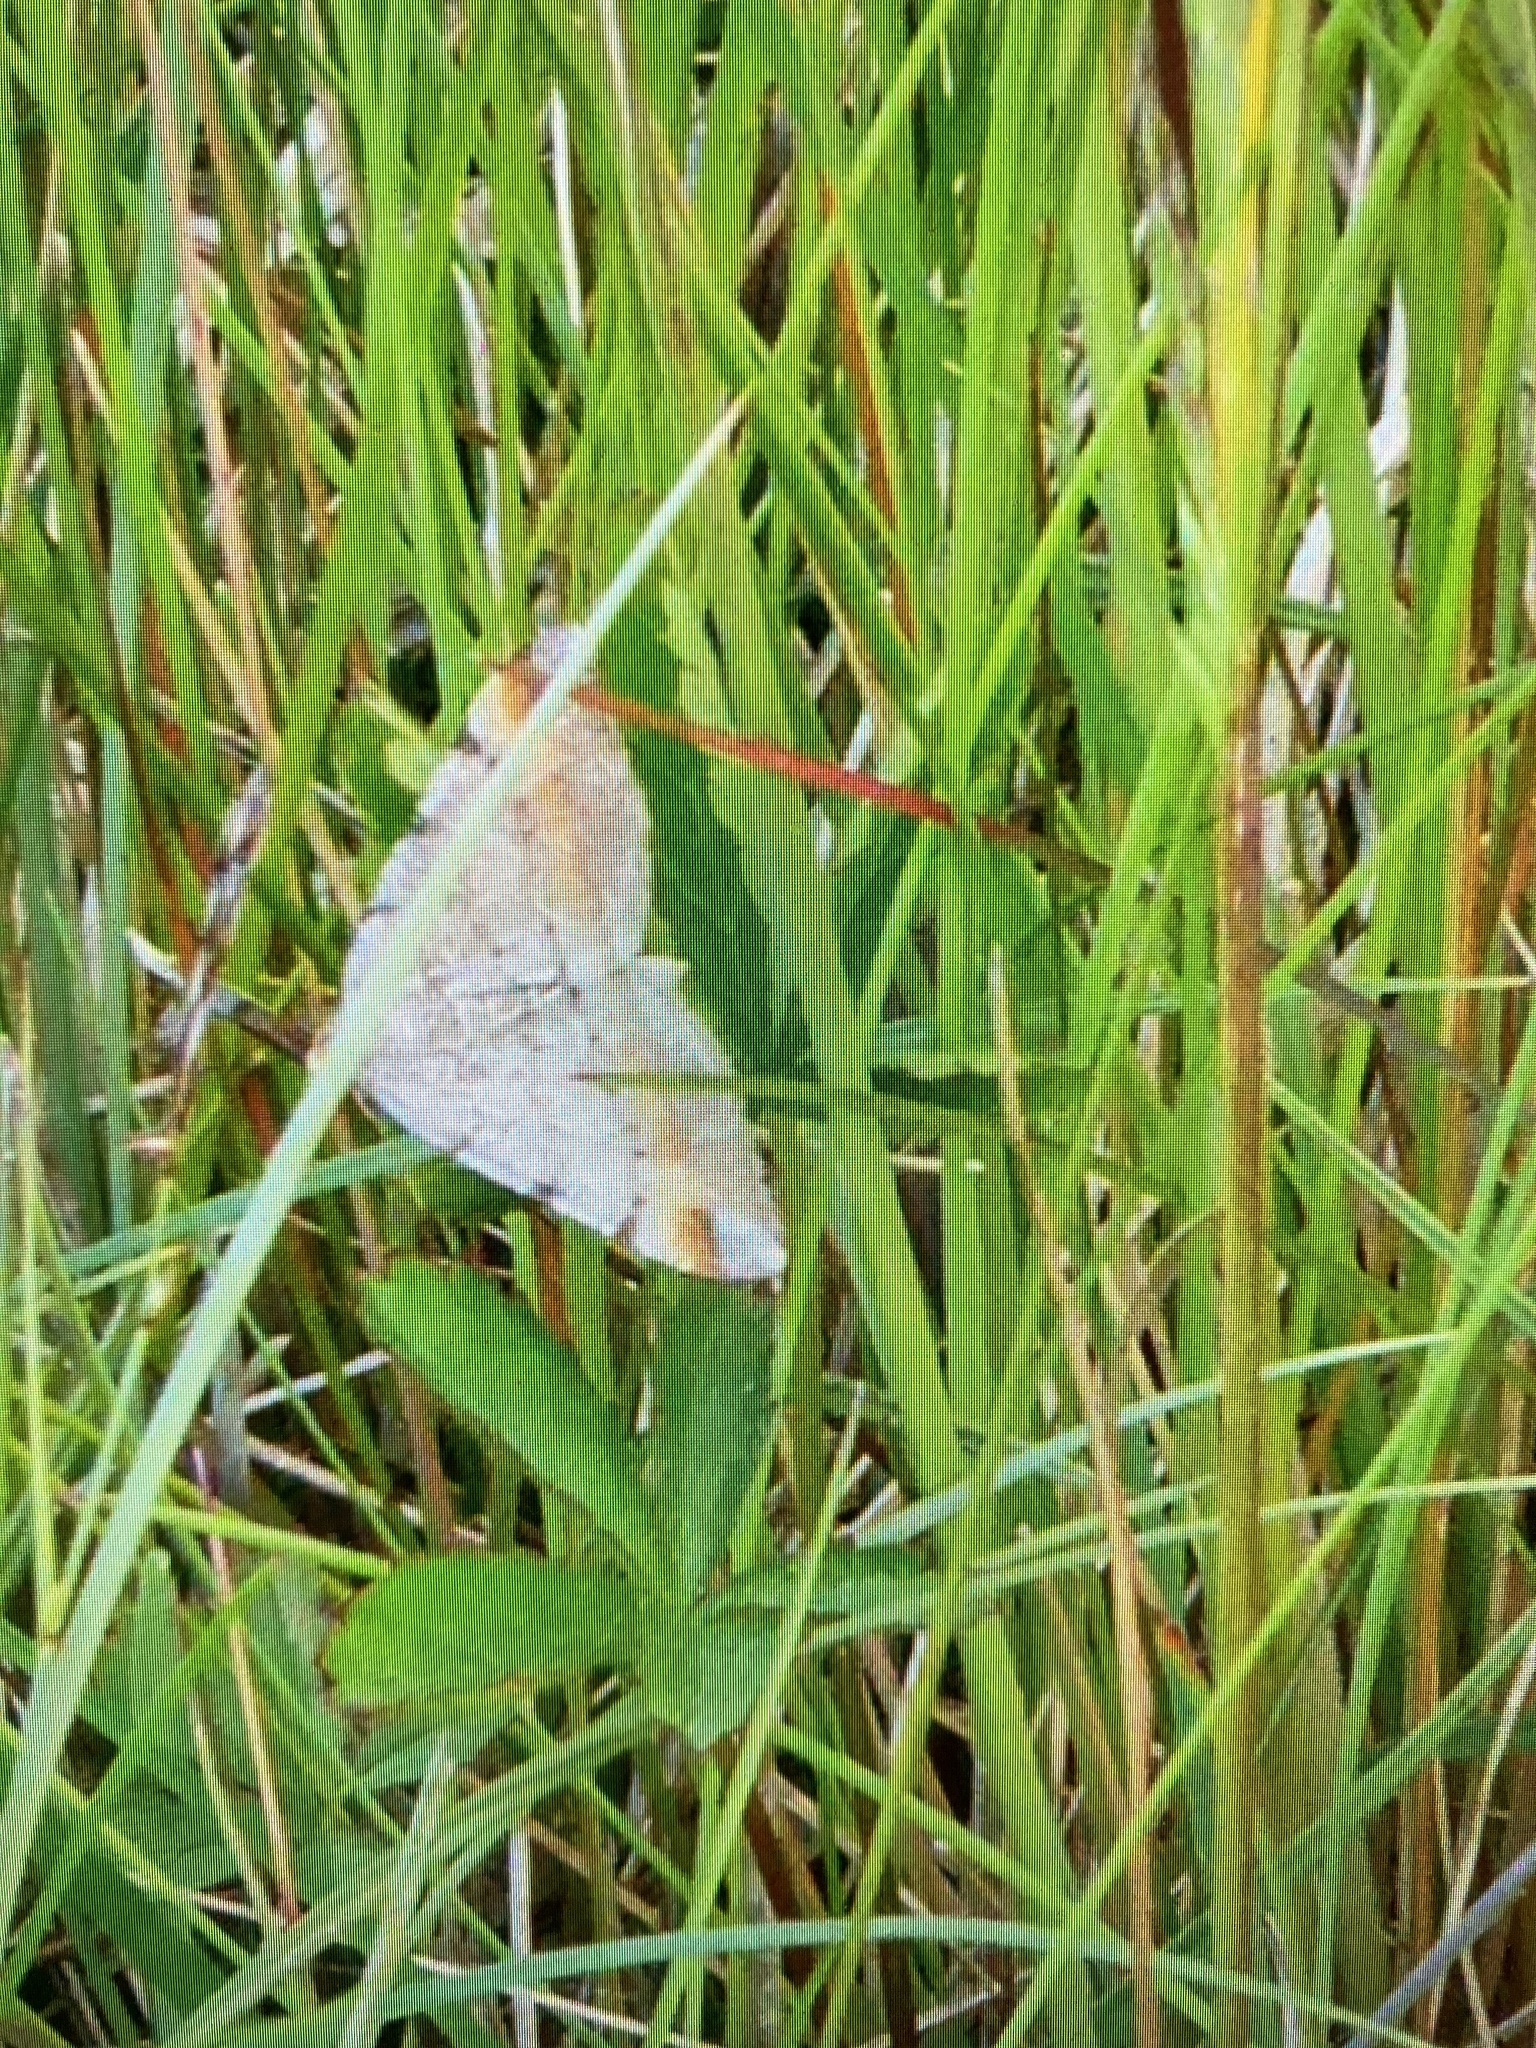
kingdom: Animalia
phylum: Arthropoda
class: Insecta
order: Lepidoptera
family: Geometridae
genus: Macaria
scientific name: Macaria liturata
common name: Tawny-barred angle
